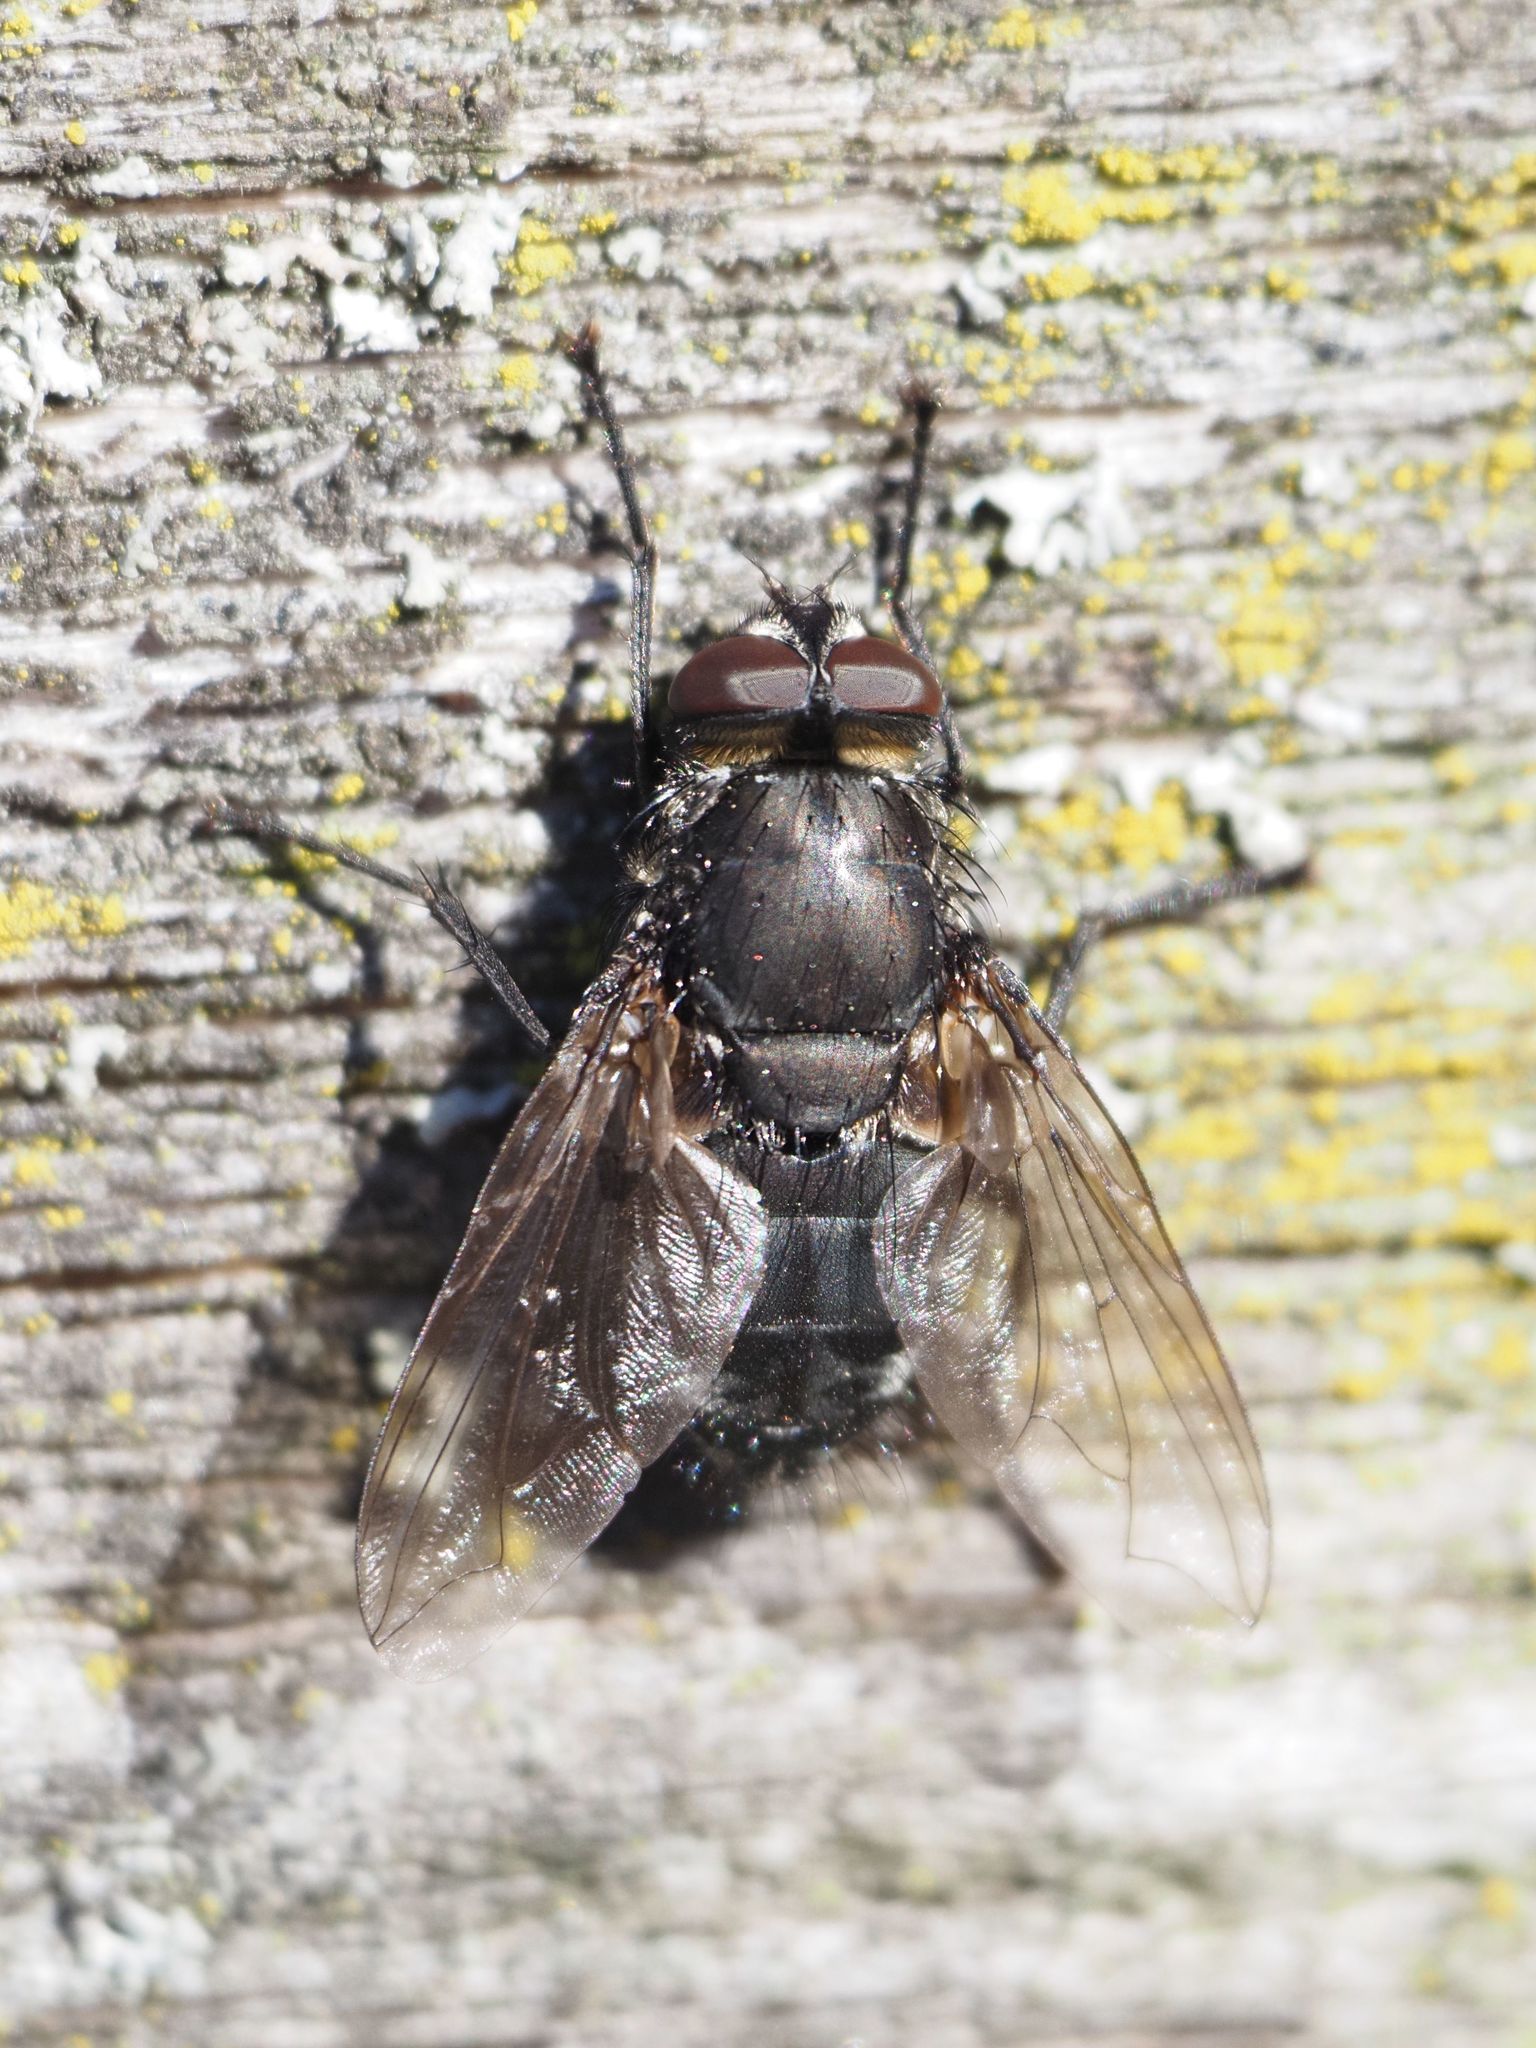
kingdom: Animalia
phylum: Arthropoda
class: Insecta
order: Diptera
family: Polleniidae
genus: Pollenia
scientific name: Pollenia vagabunda
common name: Vagabund cluster fly
